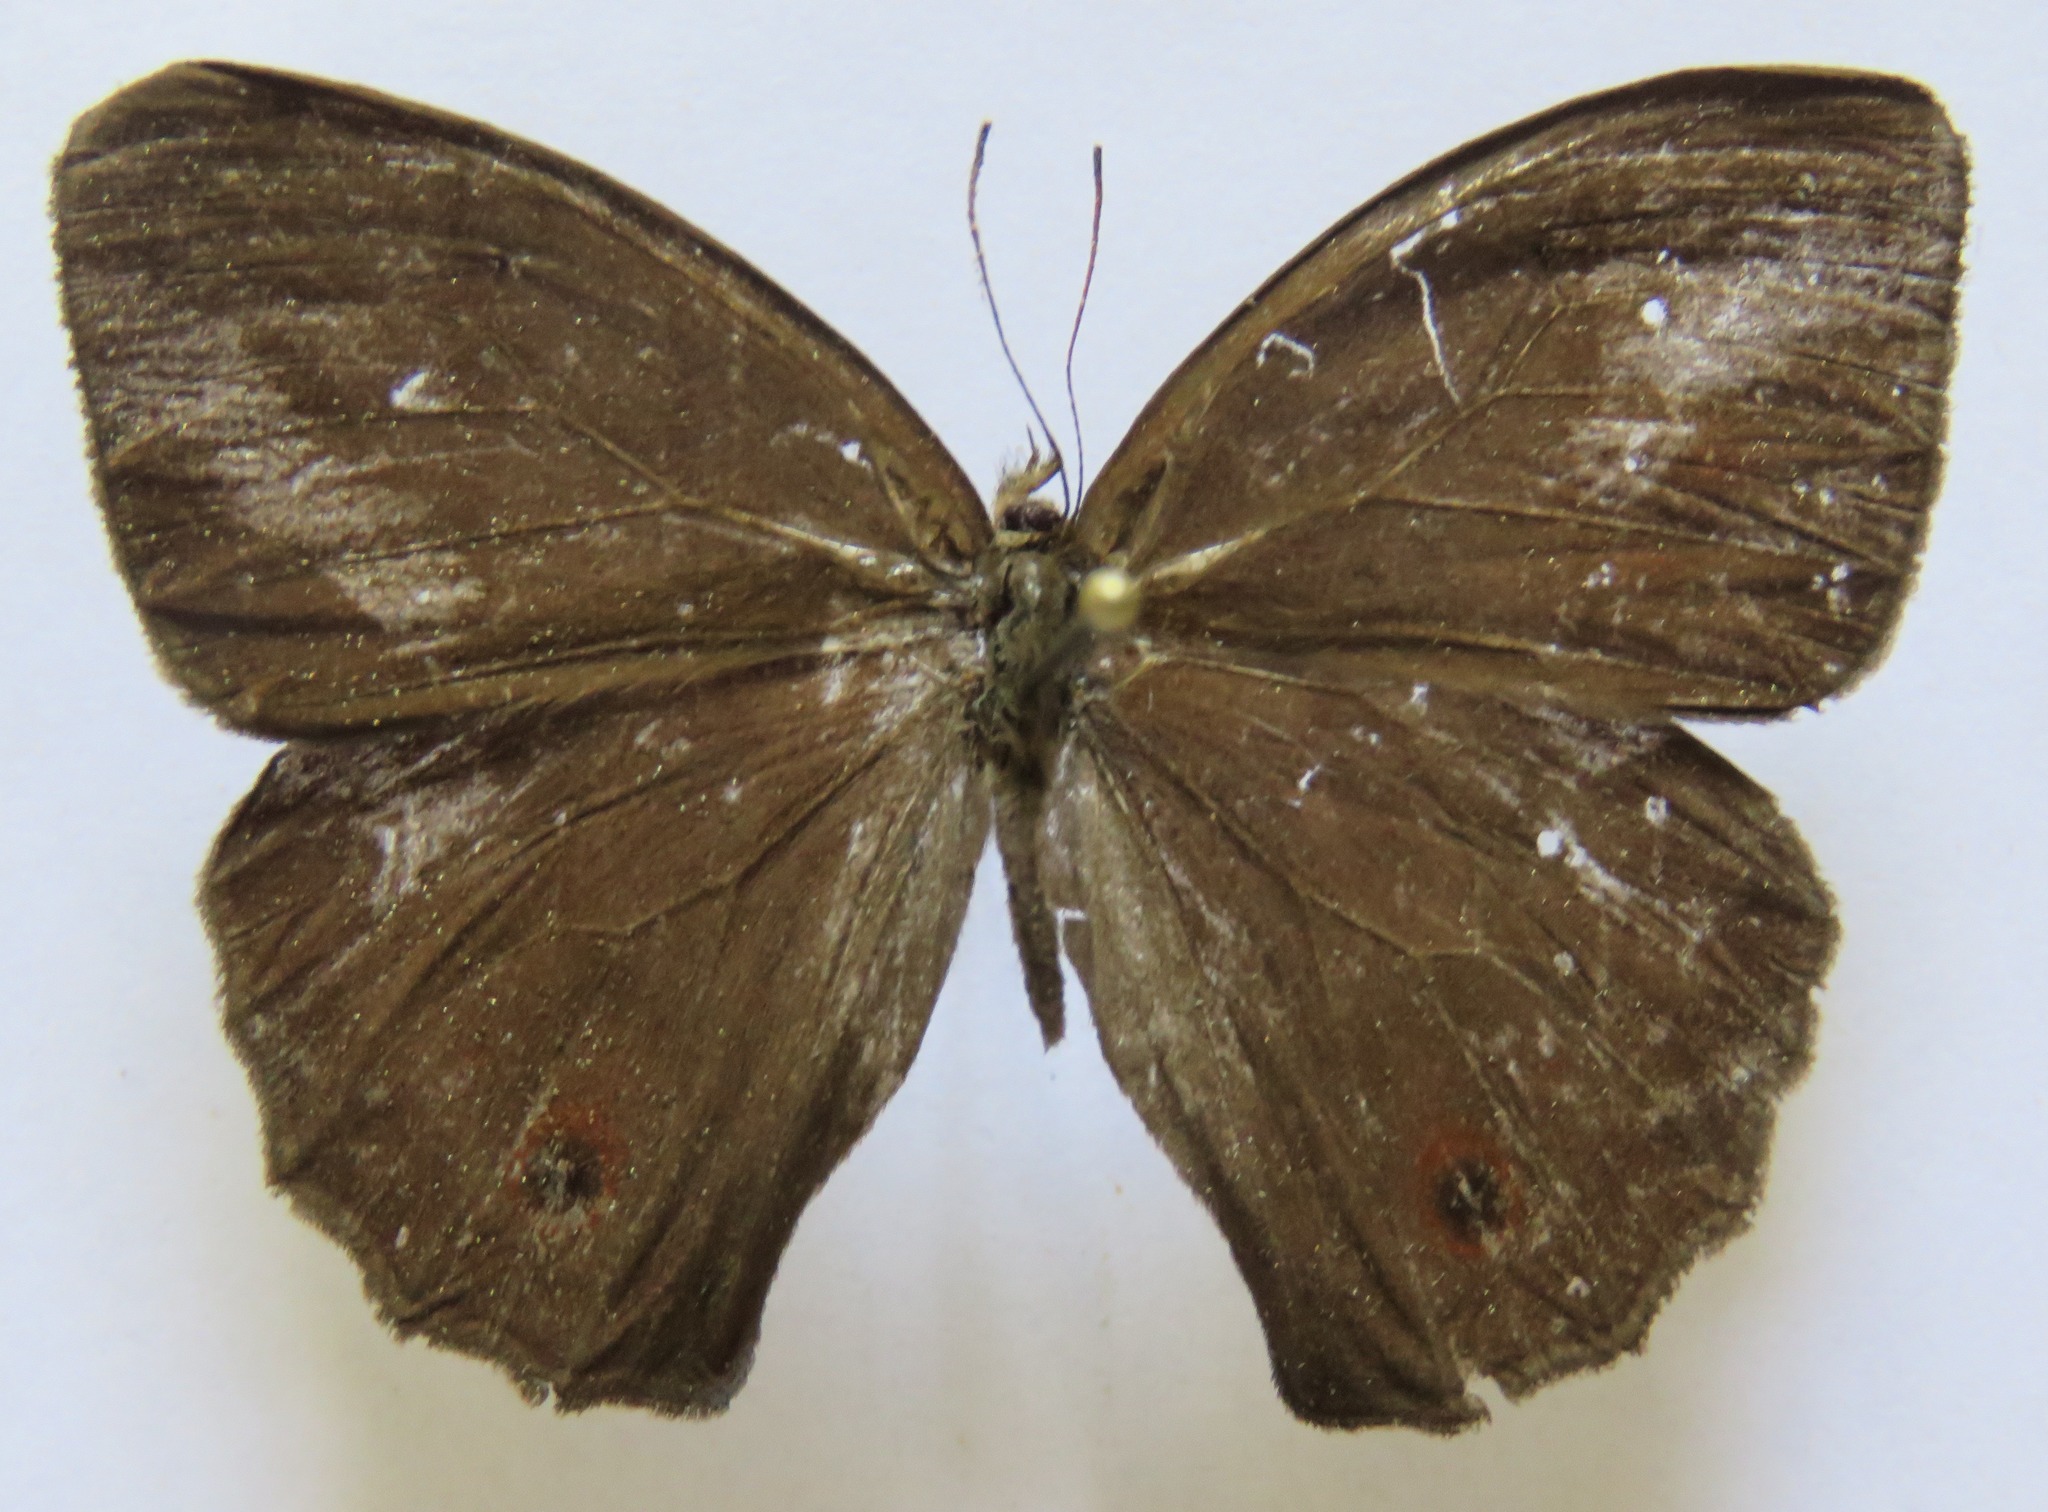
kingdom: Animalia
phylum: Arthropoda
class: Insecta
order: Lepidoptera
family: Nymphalidae
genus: Satyrotaygetis
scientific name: Satyrotaygetis satyrina
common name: Wide-bordered satyr
